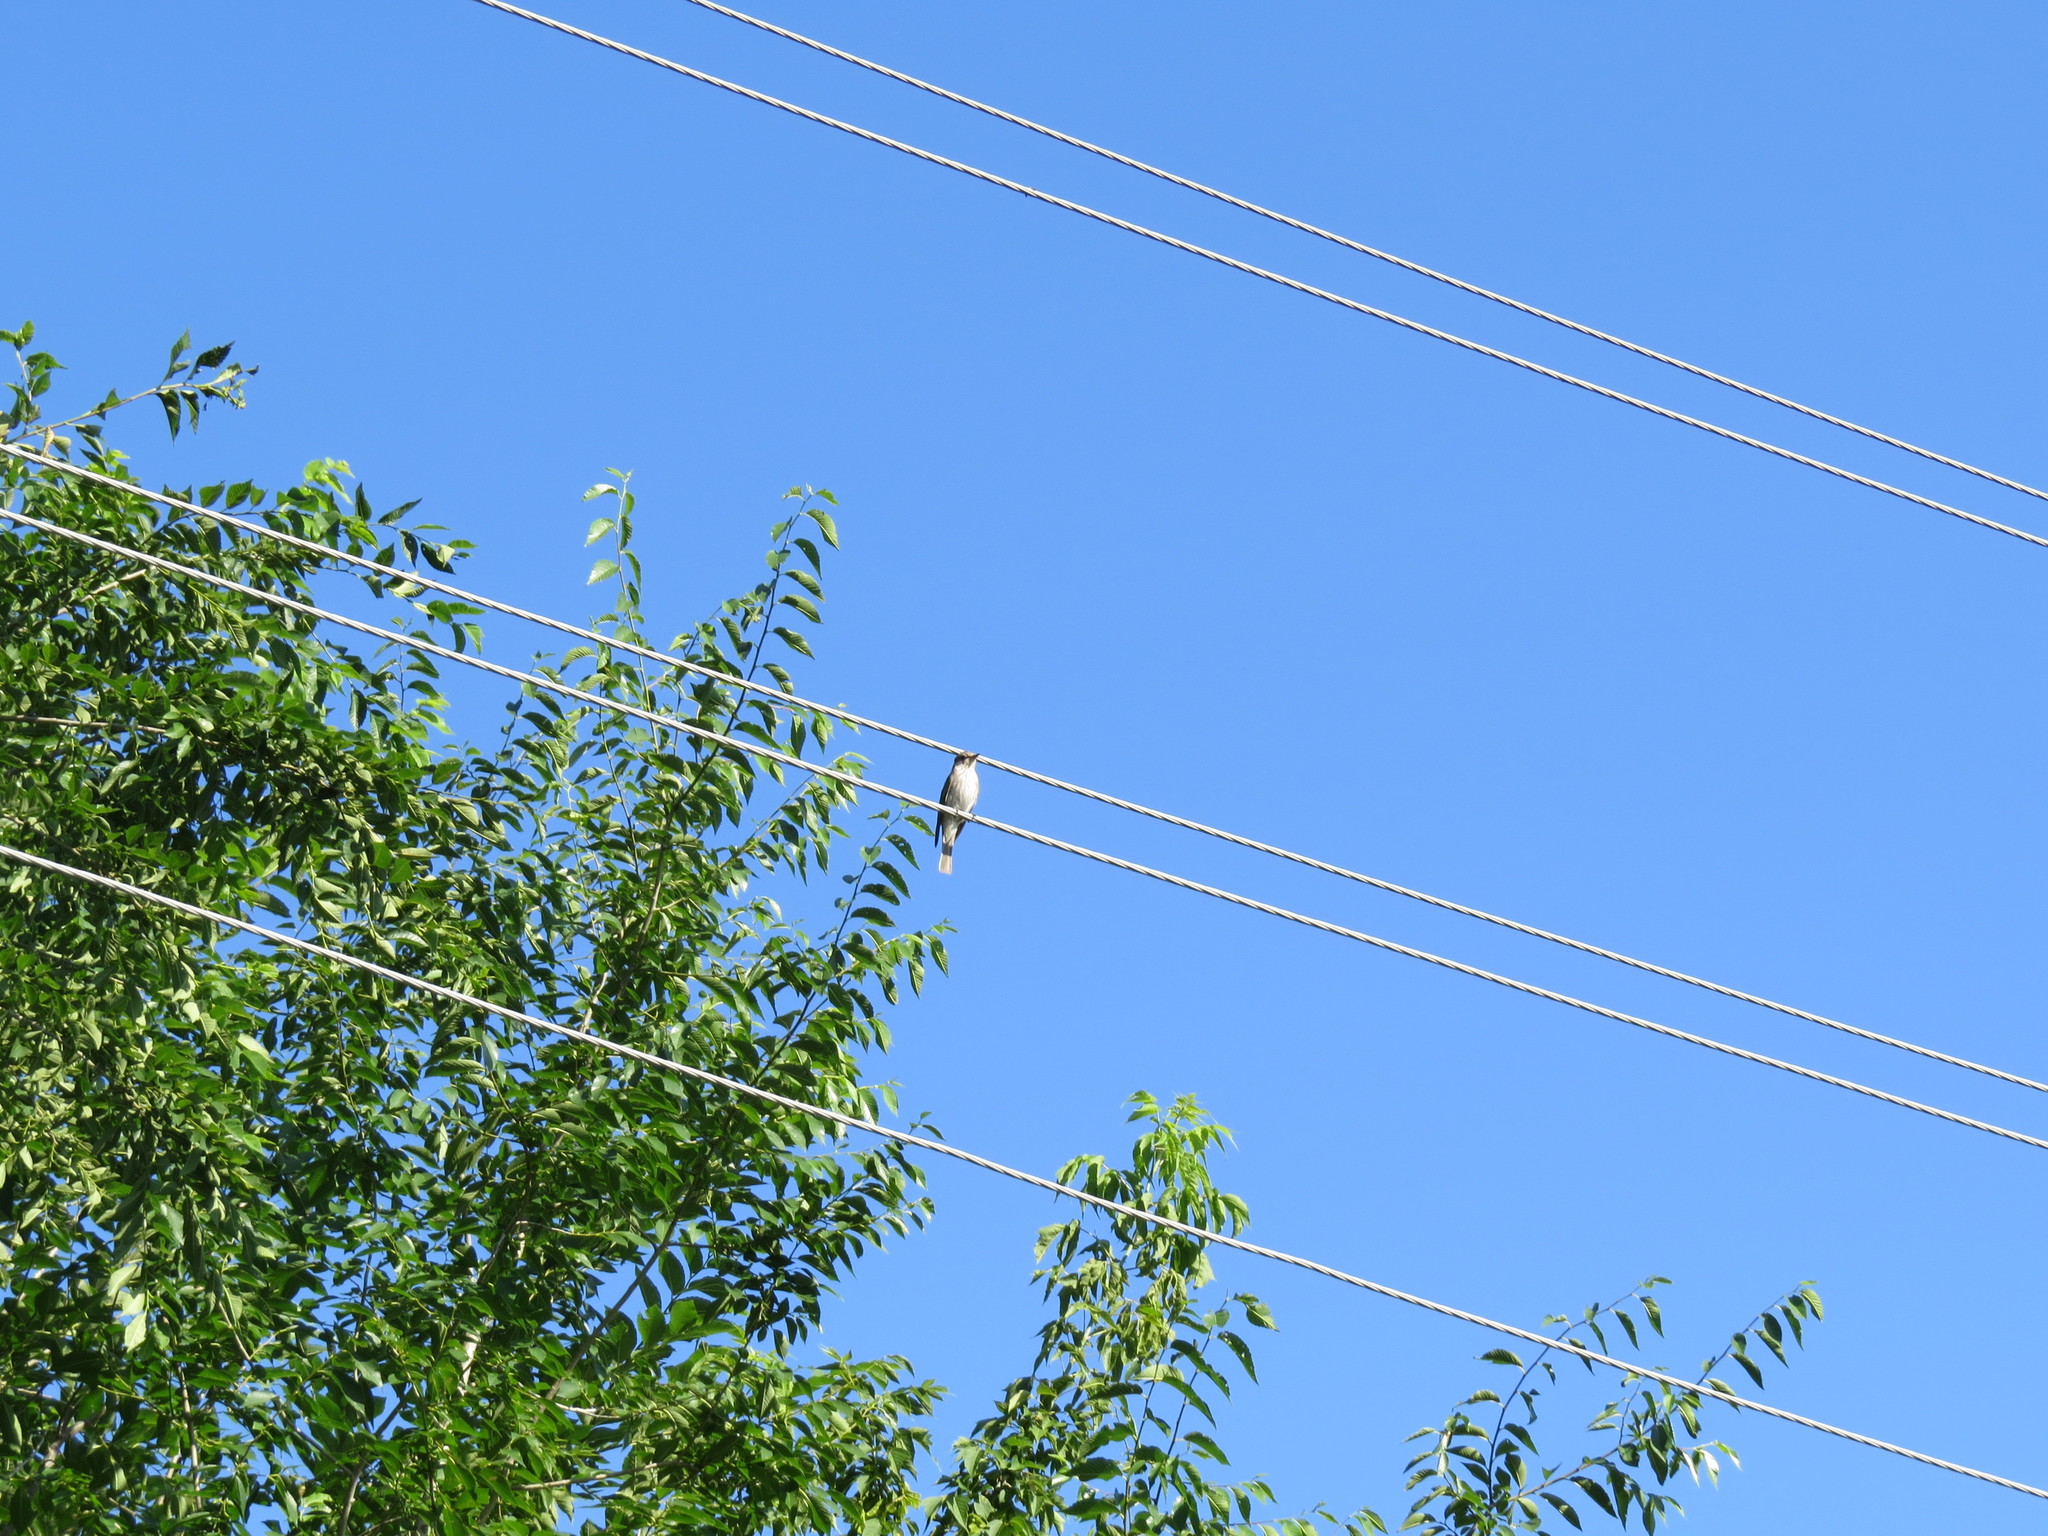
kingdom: Animalia
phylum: Chordata
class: Aves
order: Passeriformes
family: Muscicapidae
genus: Muscicapa
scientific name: Muscicapa striata
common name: Spotted flycatcher
